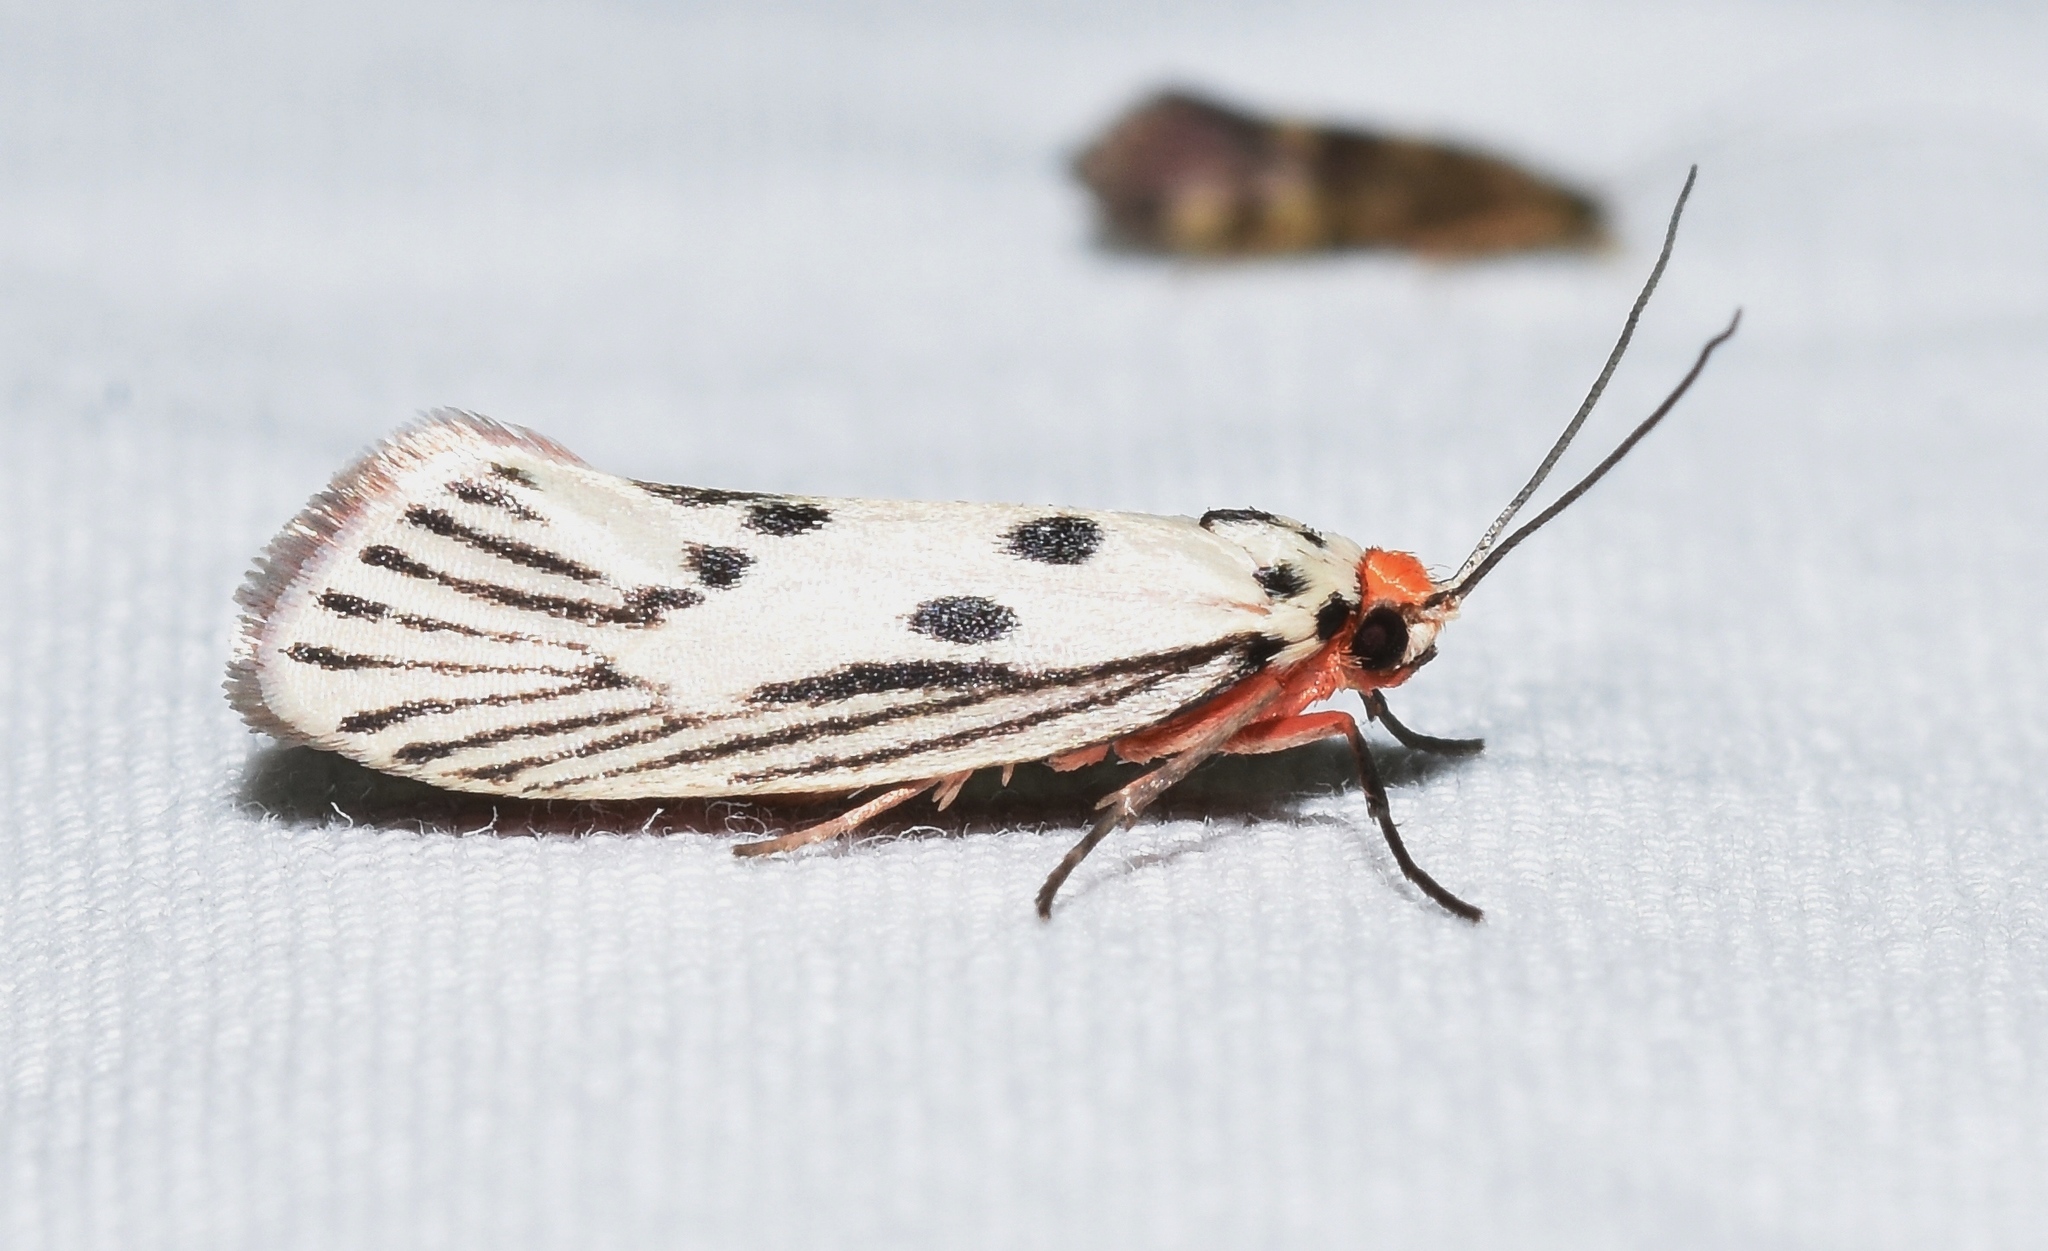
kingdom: Animalia
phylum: Arthropoda
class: Insecta
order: Lepidoptera
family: Lacturidae
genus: Lactura
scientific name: Lactura
